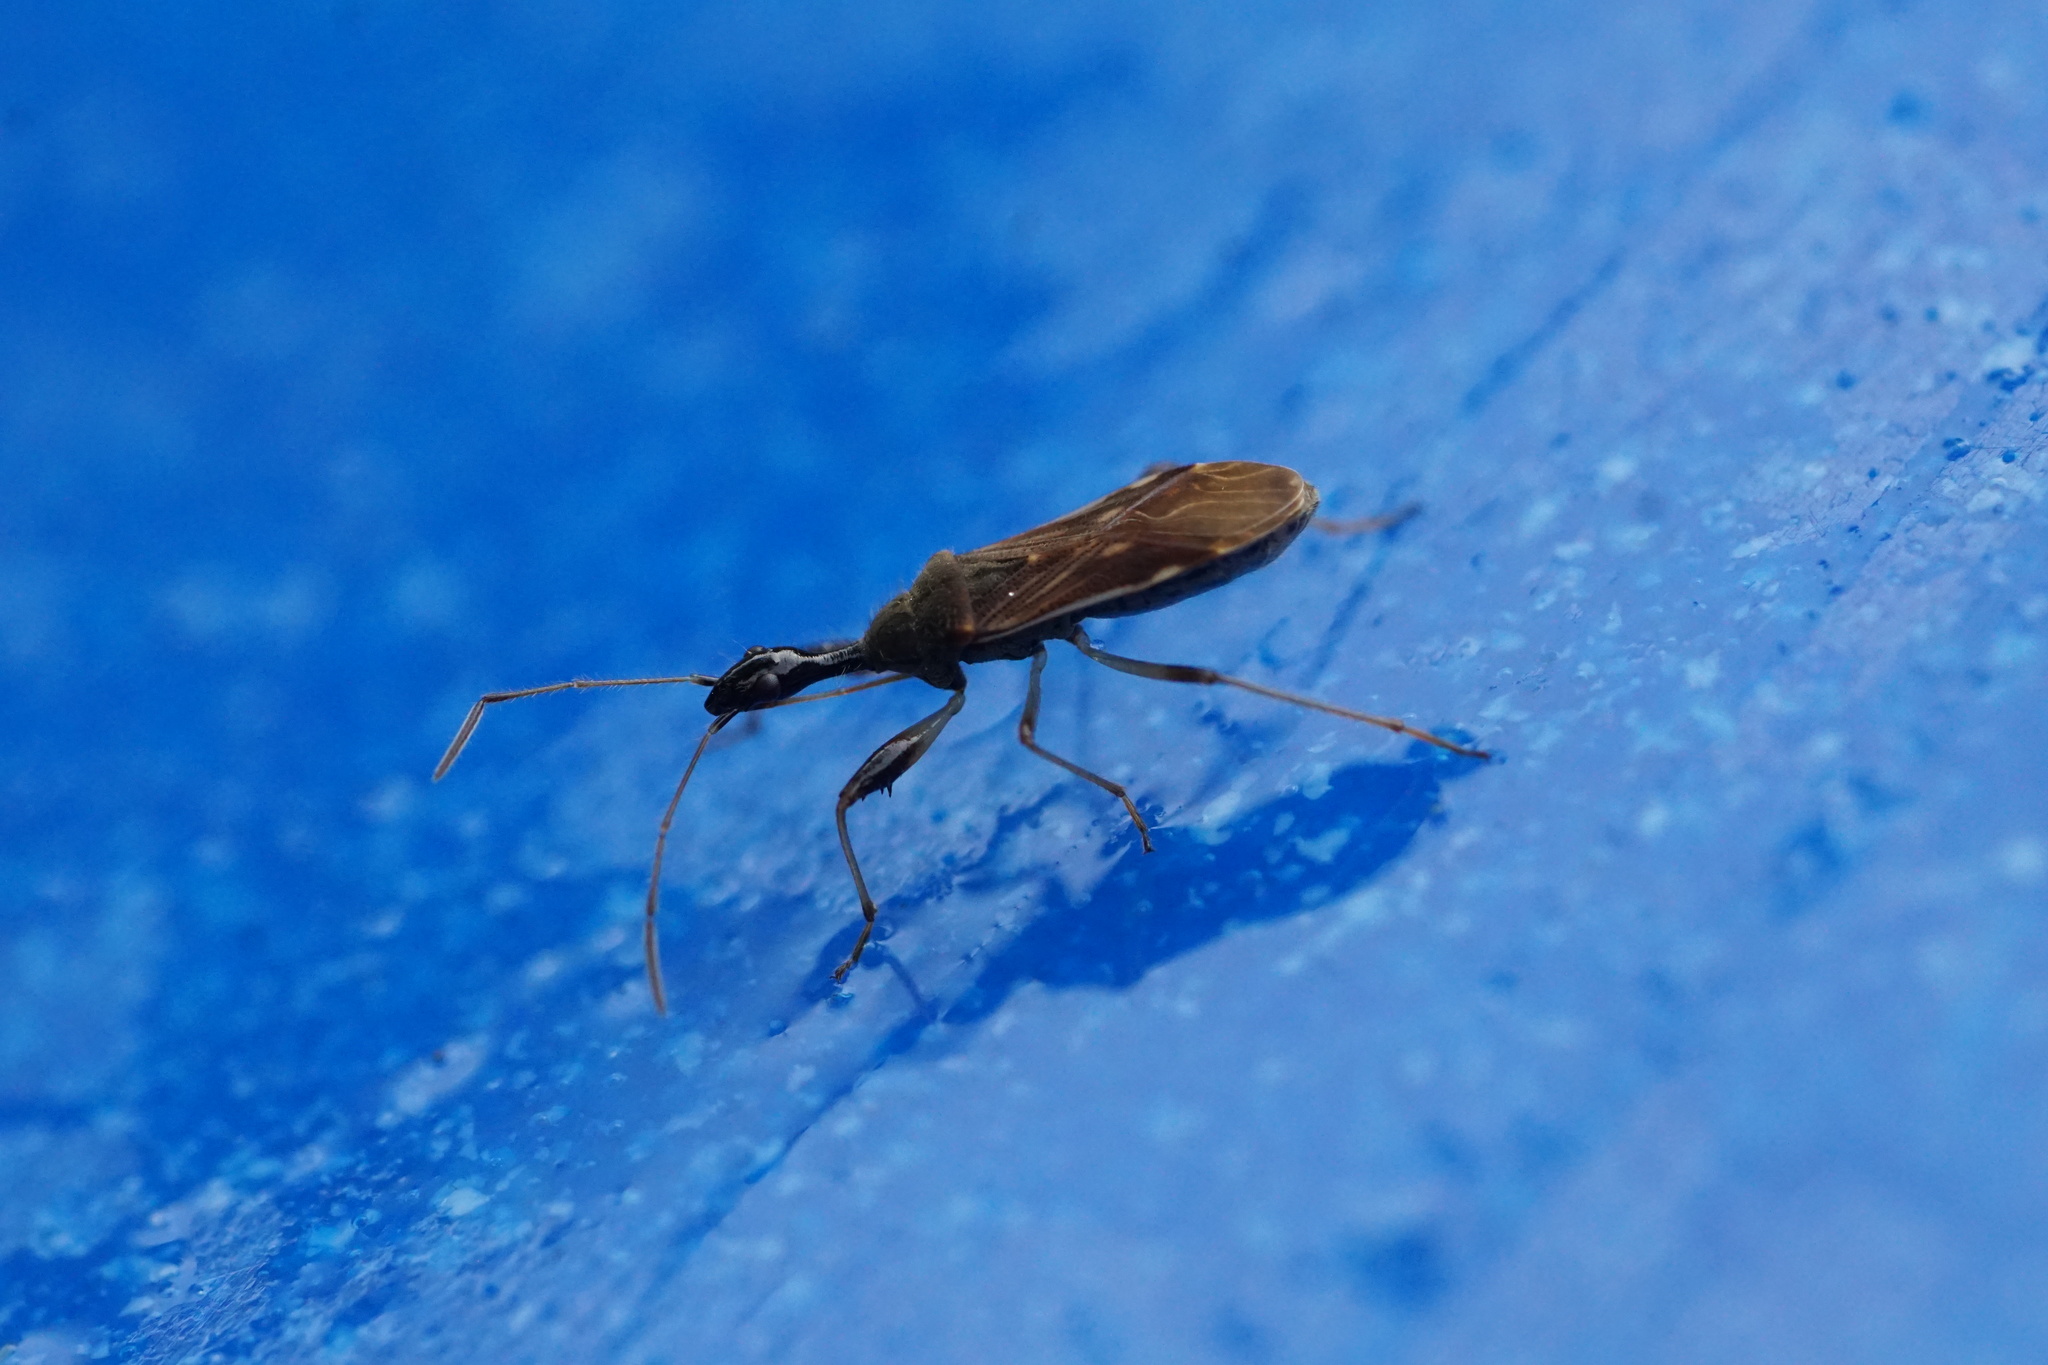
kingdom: Animalia
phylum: Arthropoda
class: Insecta
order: Hemiptera
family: Rhyparochromidae
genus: Myodocha
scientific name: Myodocha serripes
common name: Long-necked seed bug
